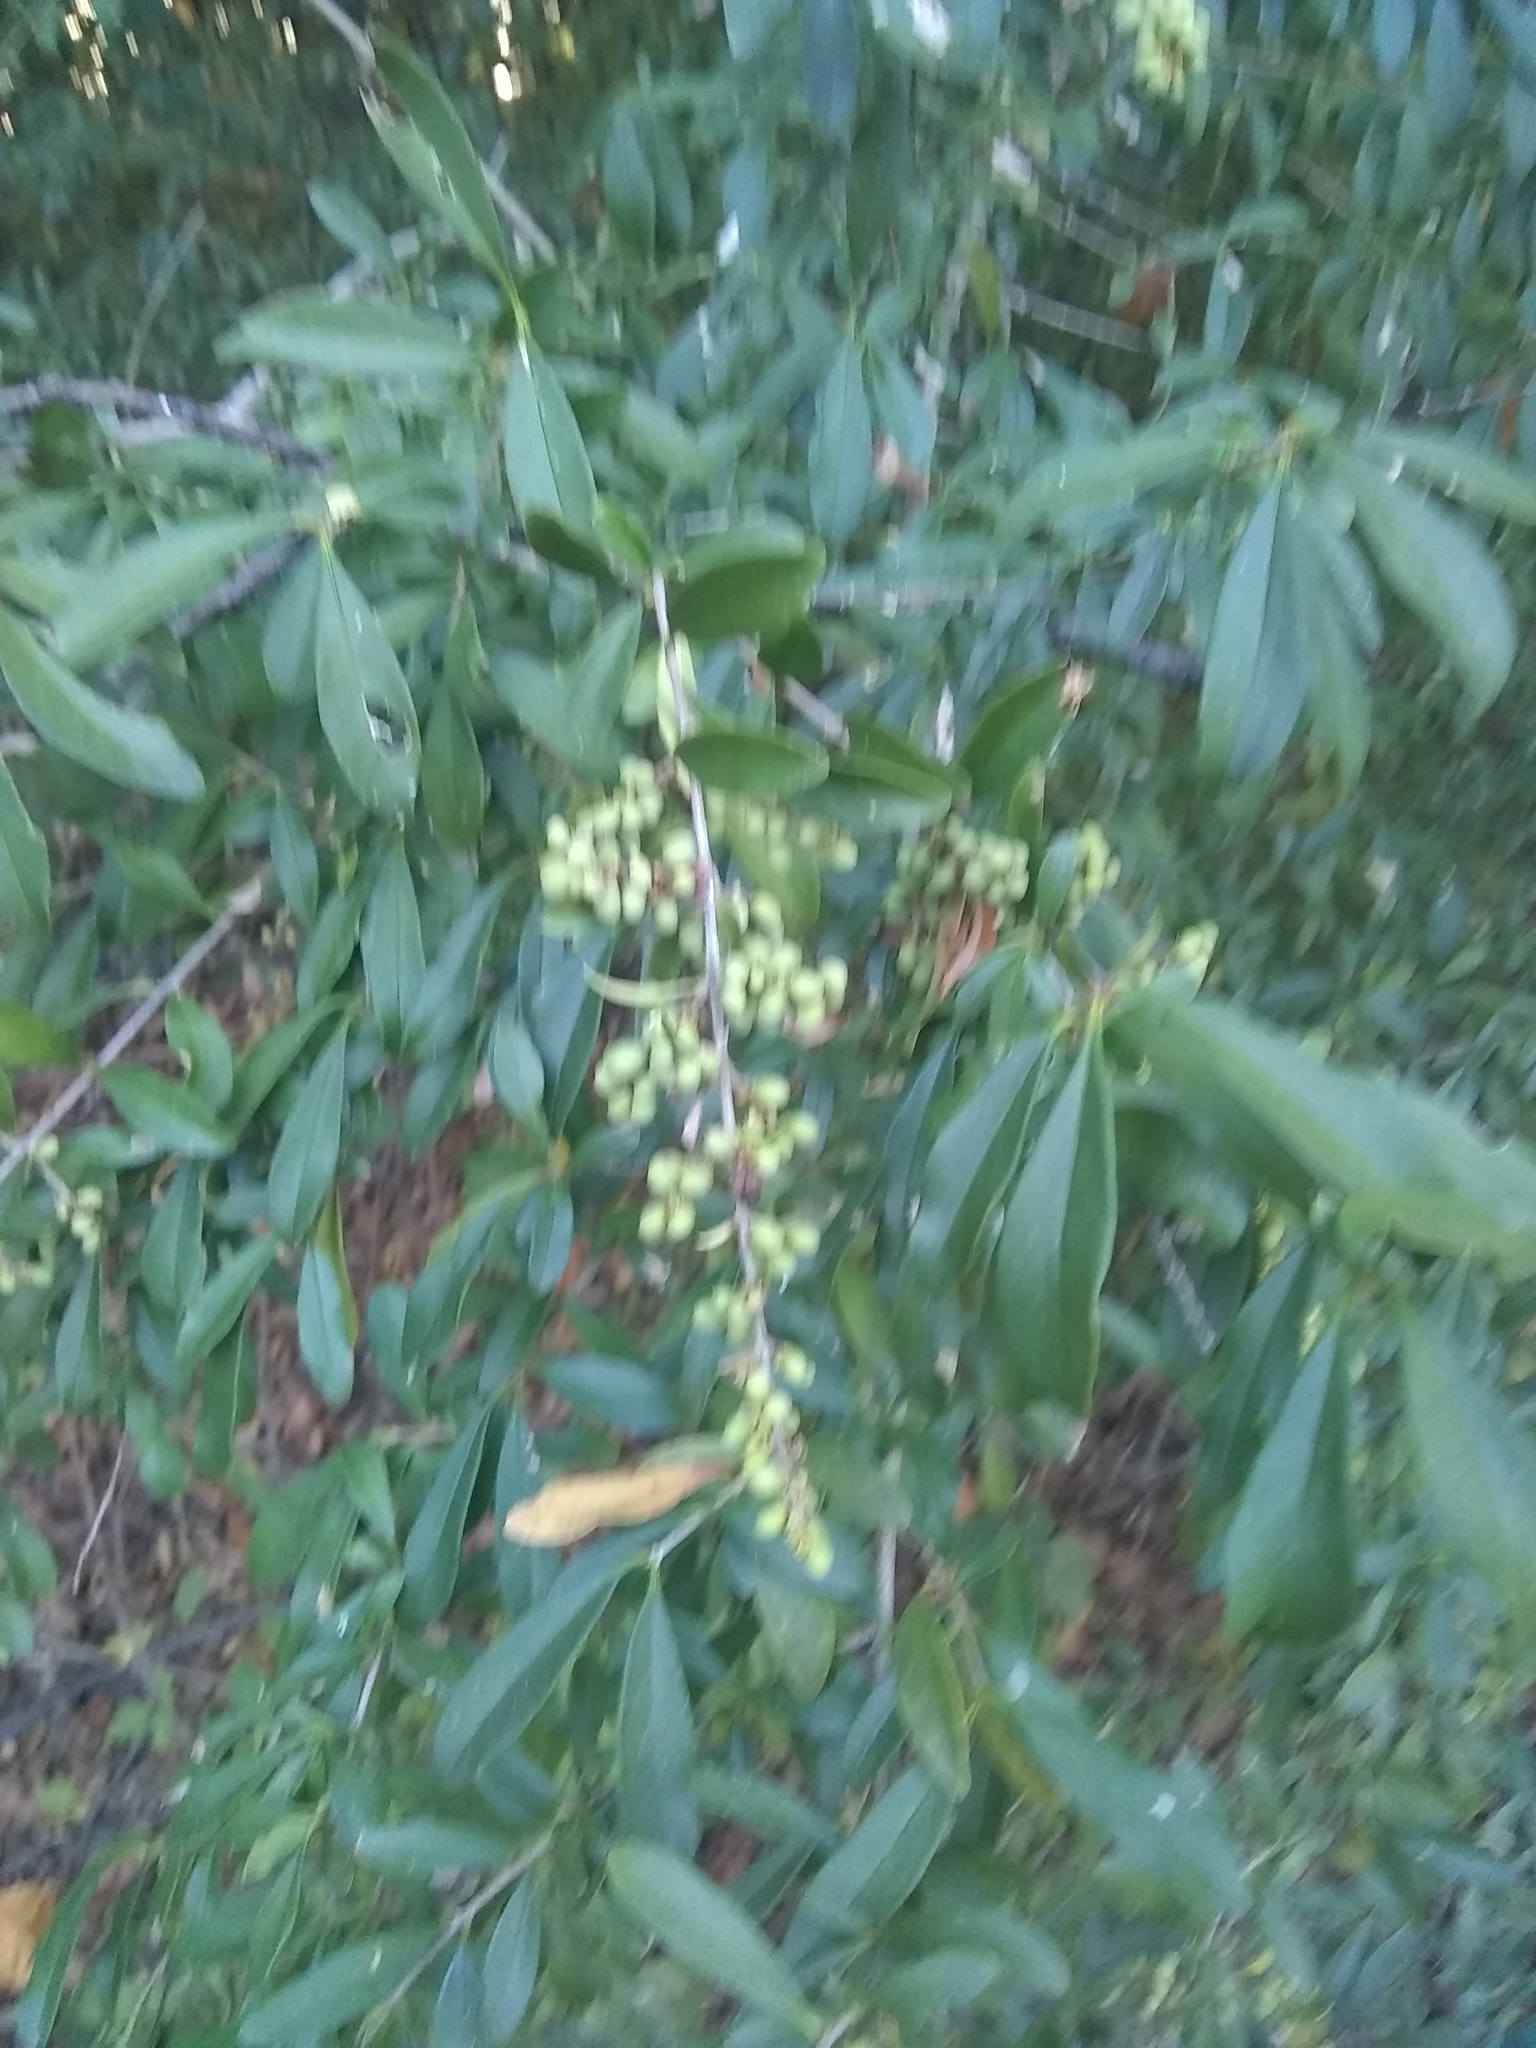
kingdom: Plantae
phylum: Tracheophyta
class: Magnoliopsida
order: Lamiales
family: Oleaceae
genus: Ligustrum
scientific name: Ligustrum quihoui
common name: Waxyleaf privet
